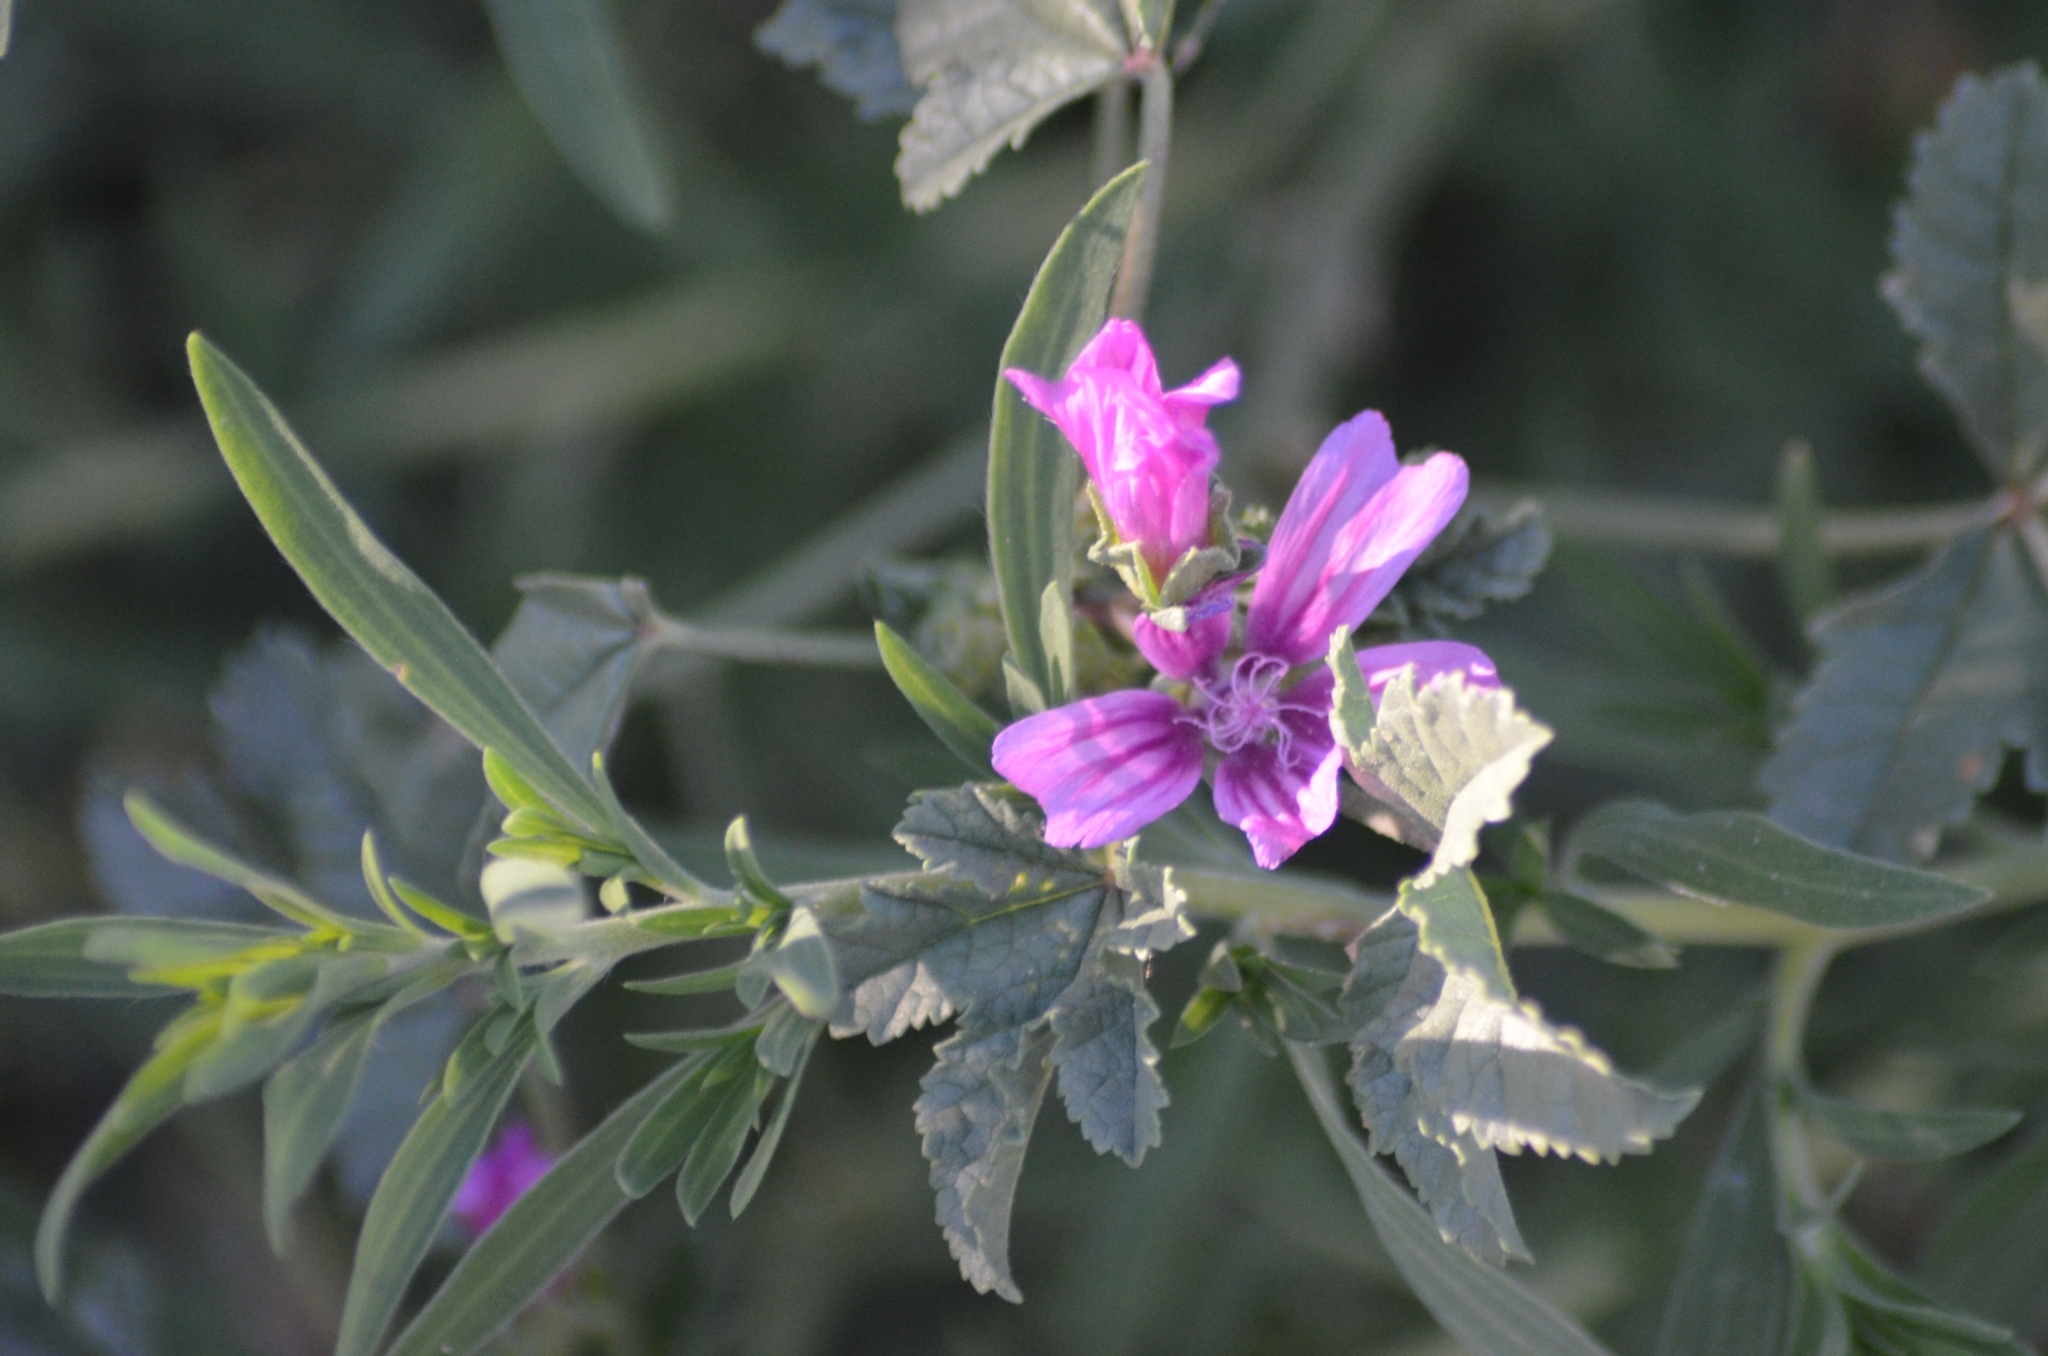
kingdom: Plantae
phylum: Tracheophyta
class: Magnoliopsida
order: Malvales
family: Malvaceae
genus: Malva
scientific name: Malva sylvestris
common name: Common mallow
